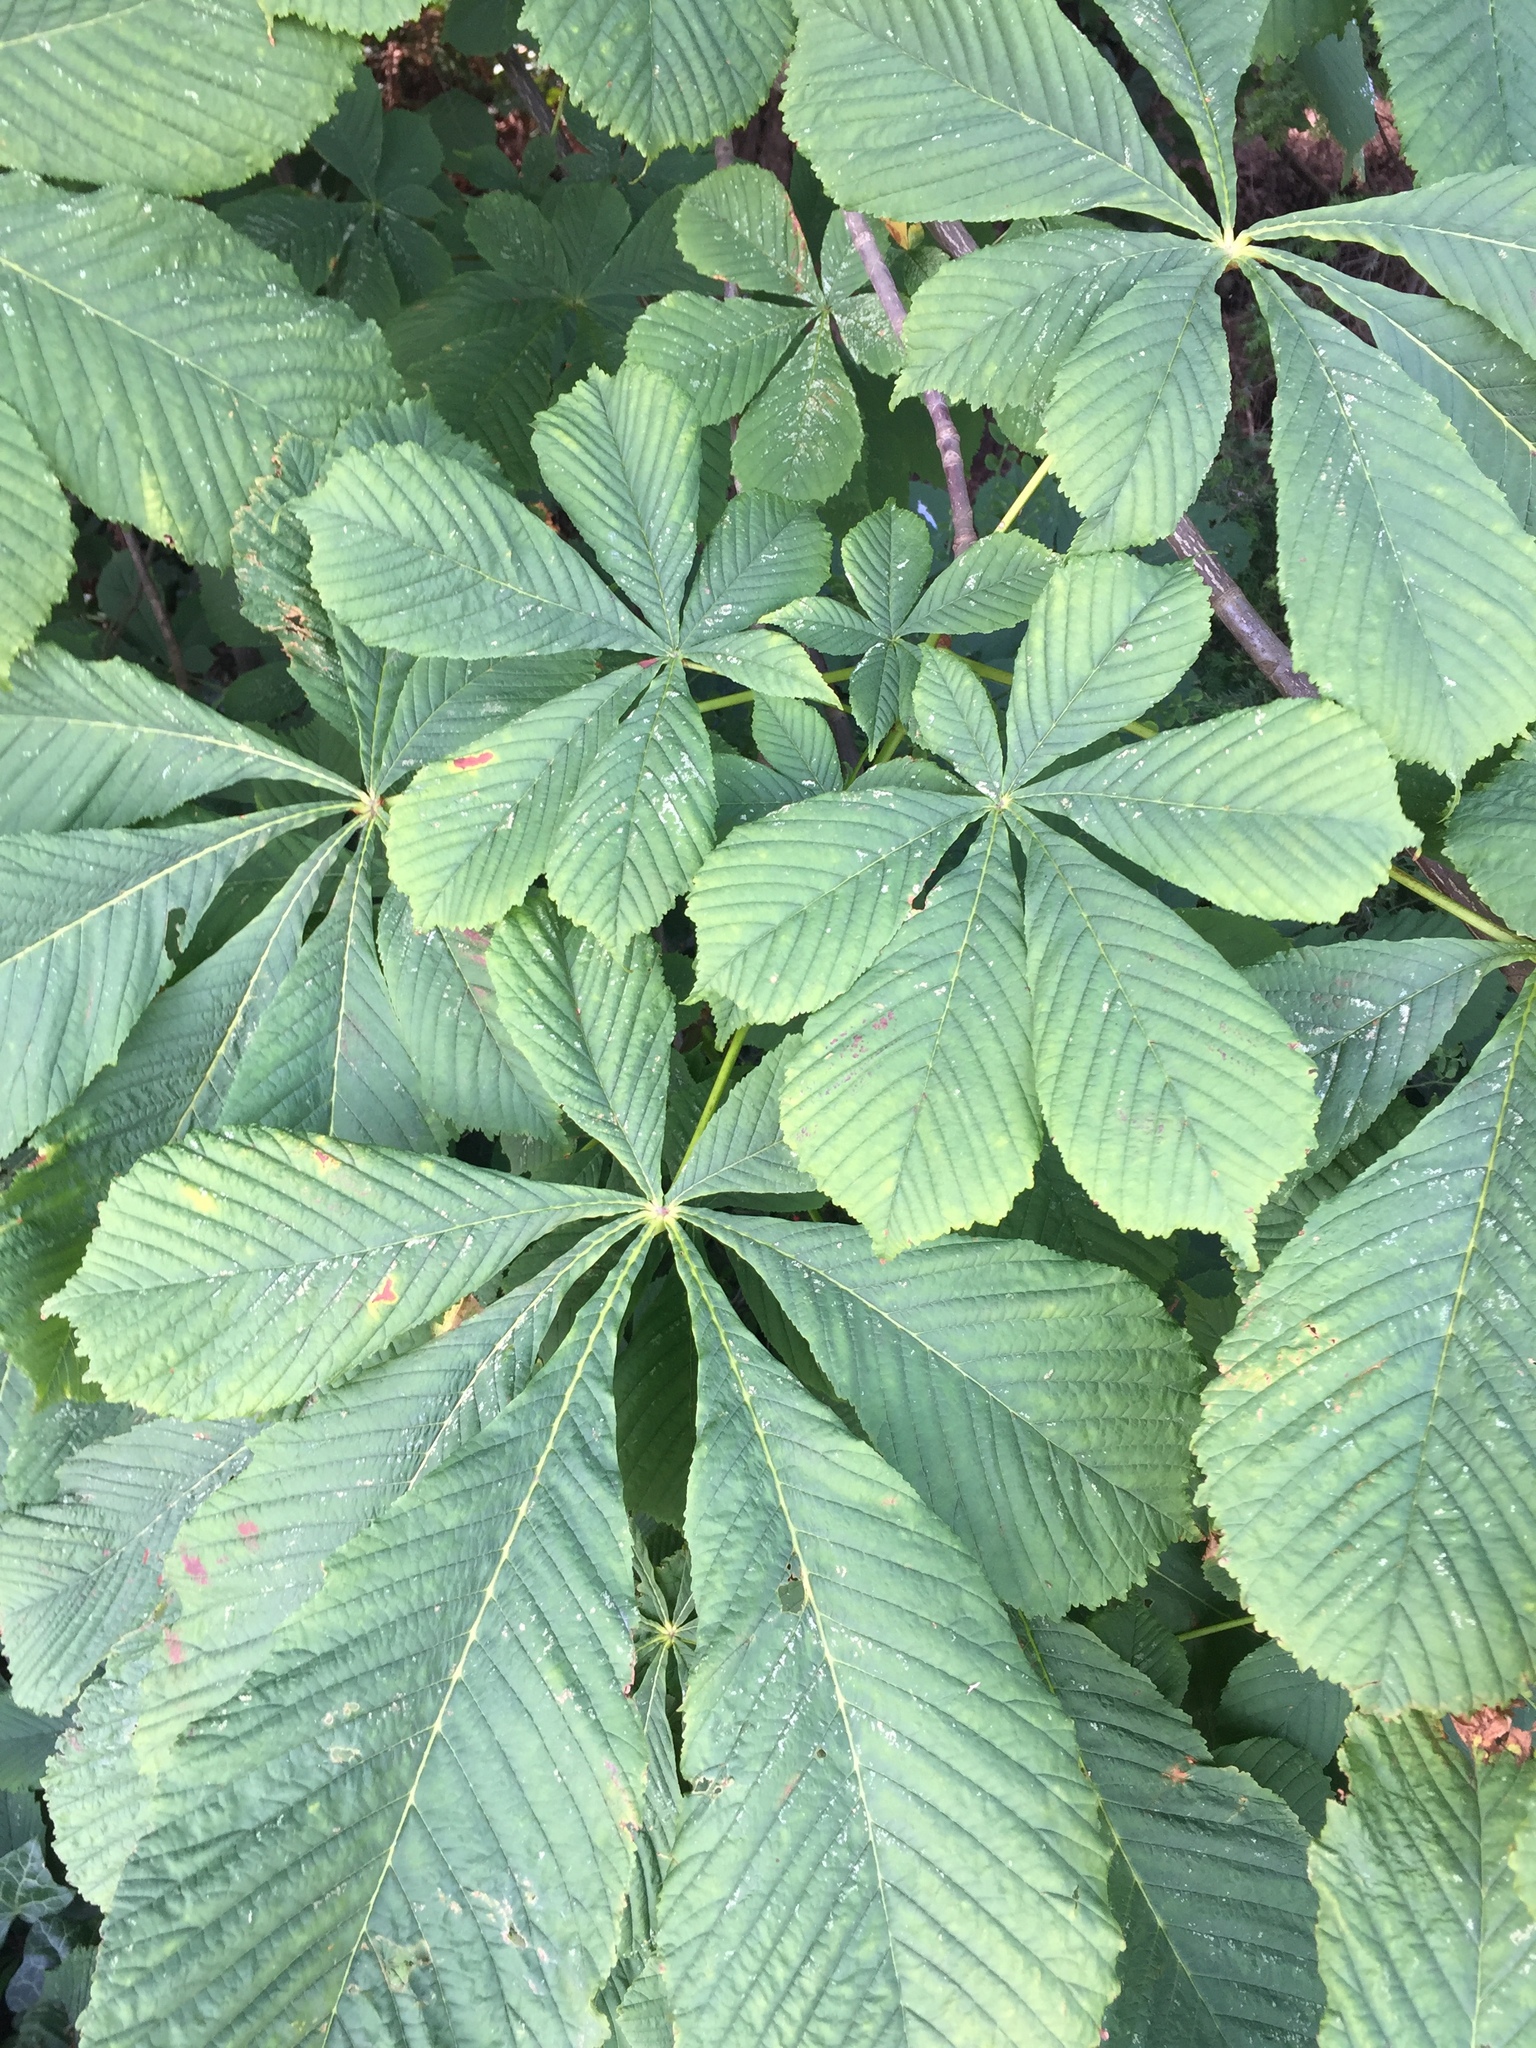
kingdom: Plantae
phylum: Tracheophyta
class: Magnoliopsida
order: Sapindales
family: Sapindaceae
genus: Aesculus
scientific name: Aesculus hippocastanum
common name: Horse-chestnut
